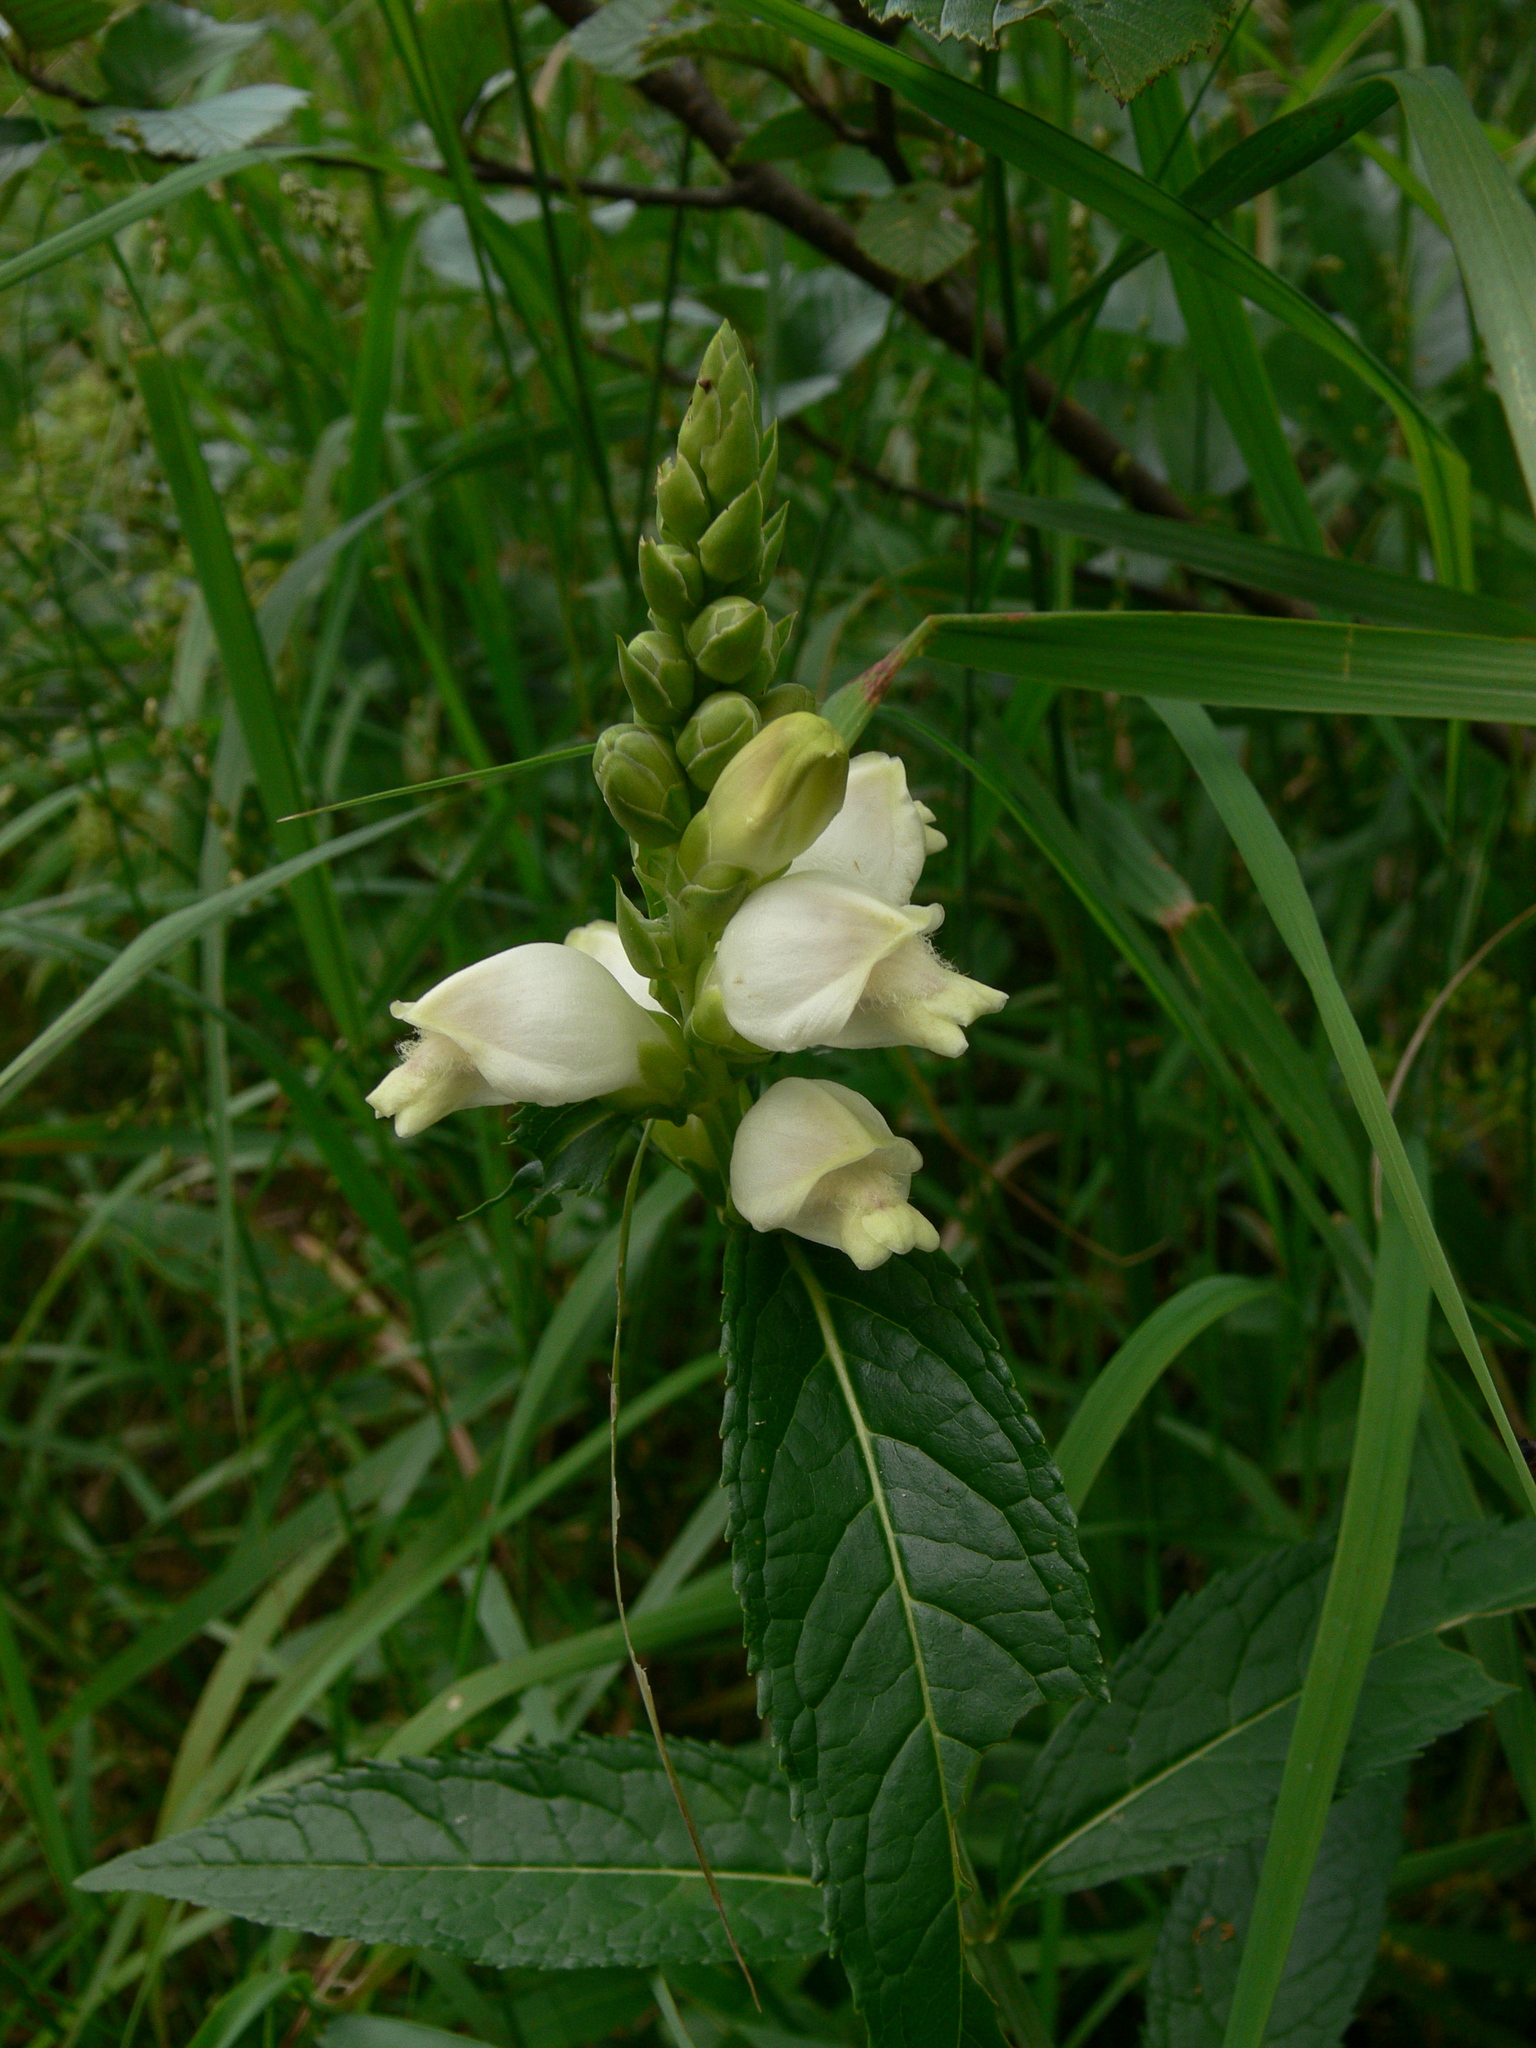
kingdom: Plantae
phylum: Tracheophyta
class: Magnoliopsida
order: Lamiales
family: Plantaginaceae
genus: Chelone
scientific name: Chelone glabra
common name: Snakehead
